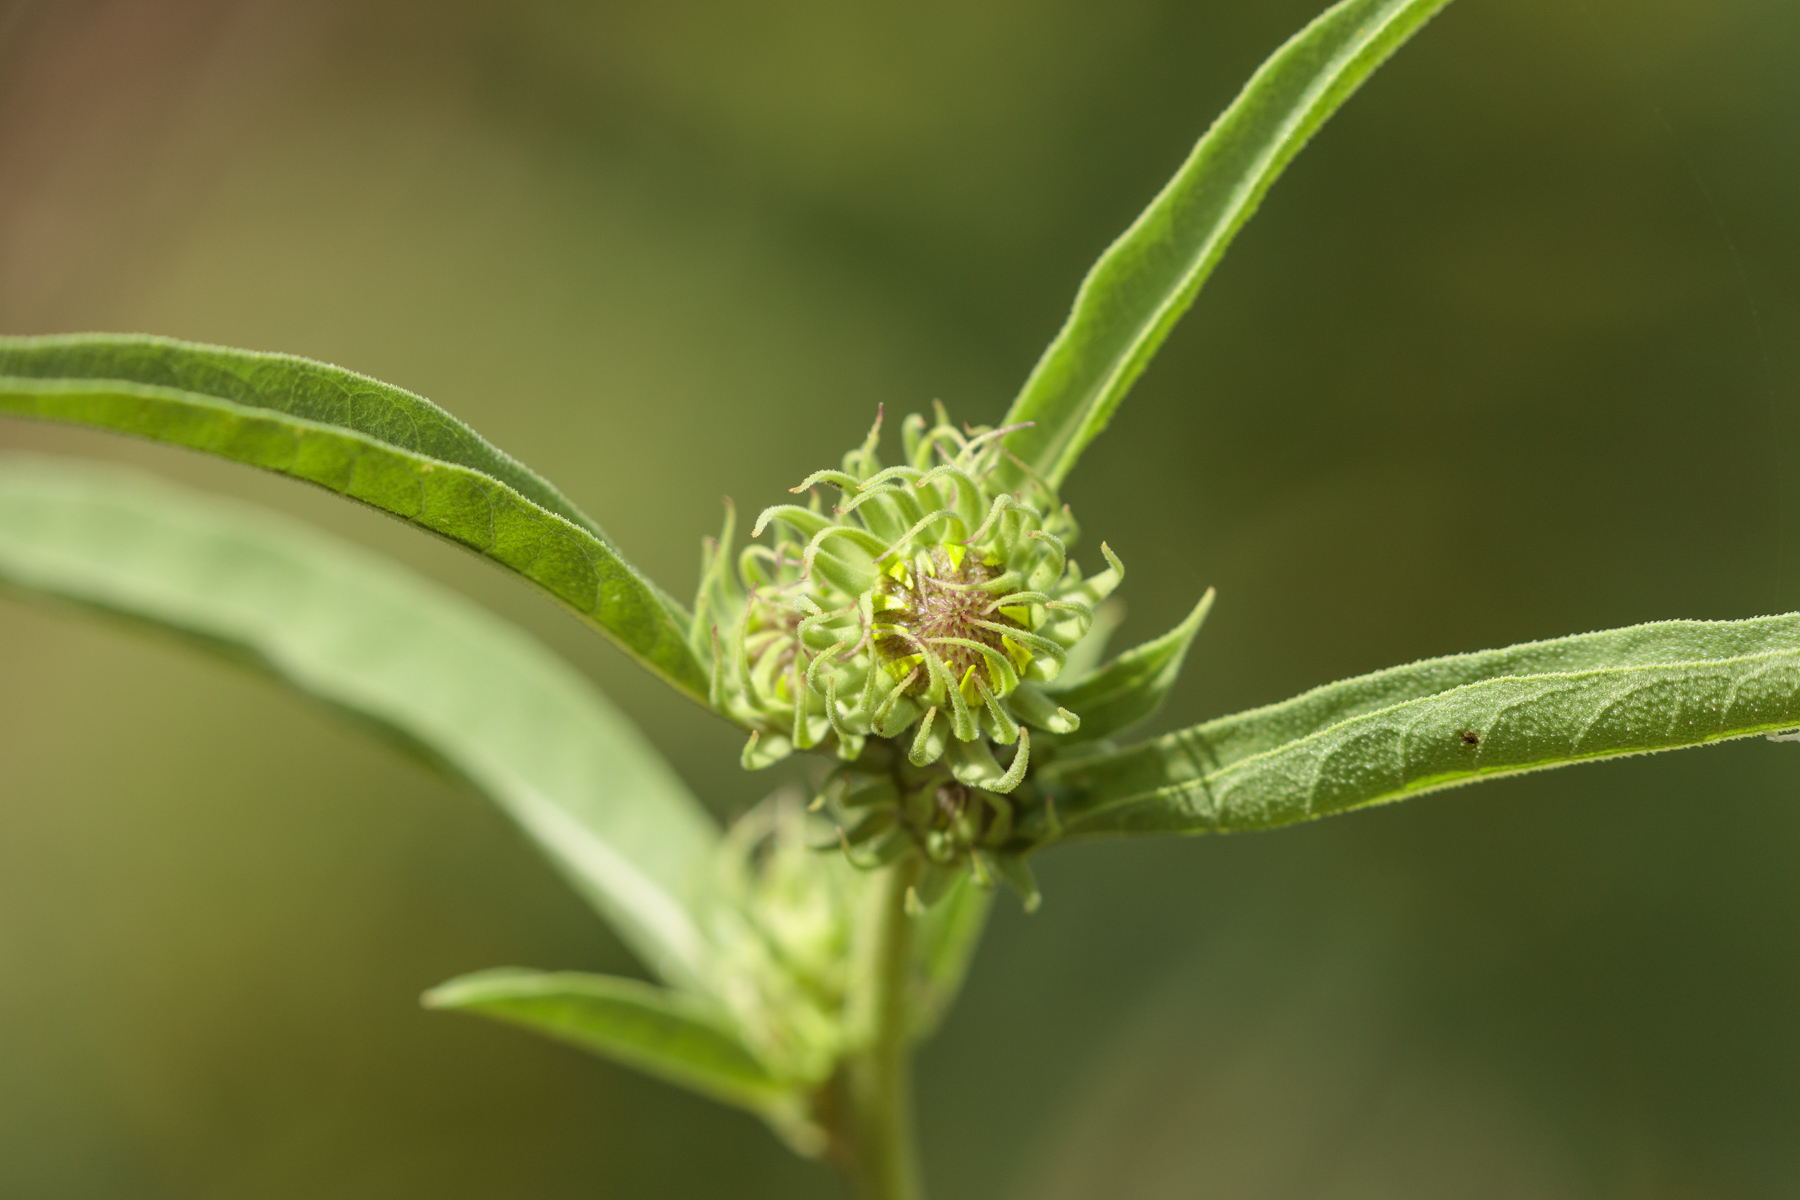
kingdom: Plantae
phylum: Tracheophyta
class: Magnoliopsida
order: Asterales
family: Asteraceae
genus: Helianthus
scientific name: Helianthus maximiliani
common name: Maximilian's sunflower
